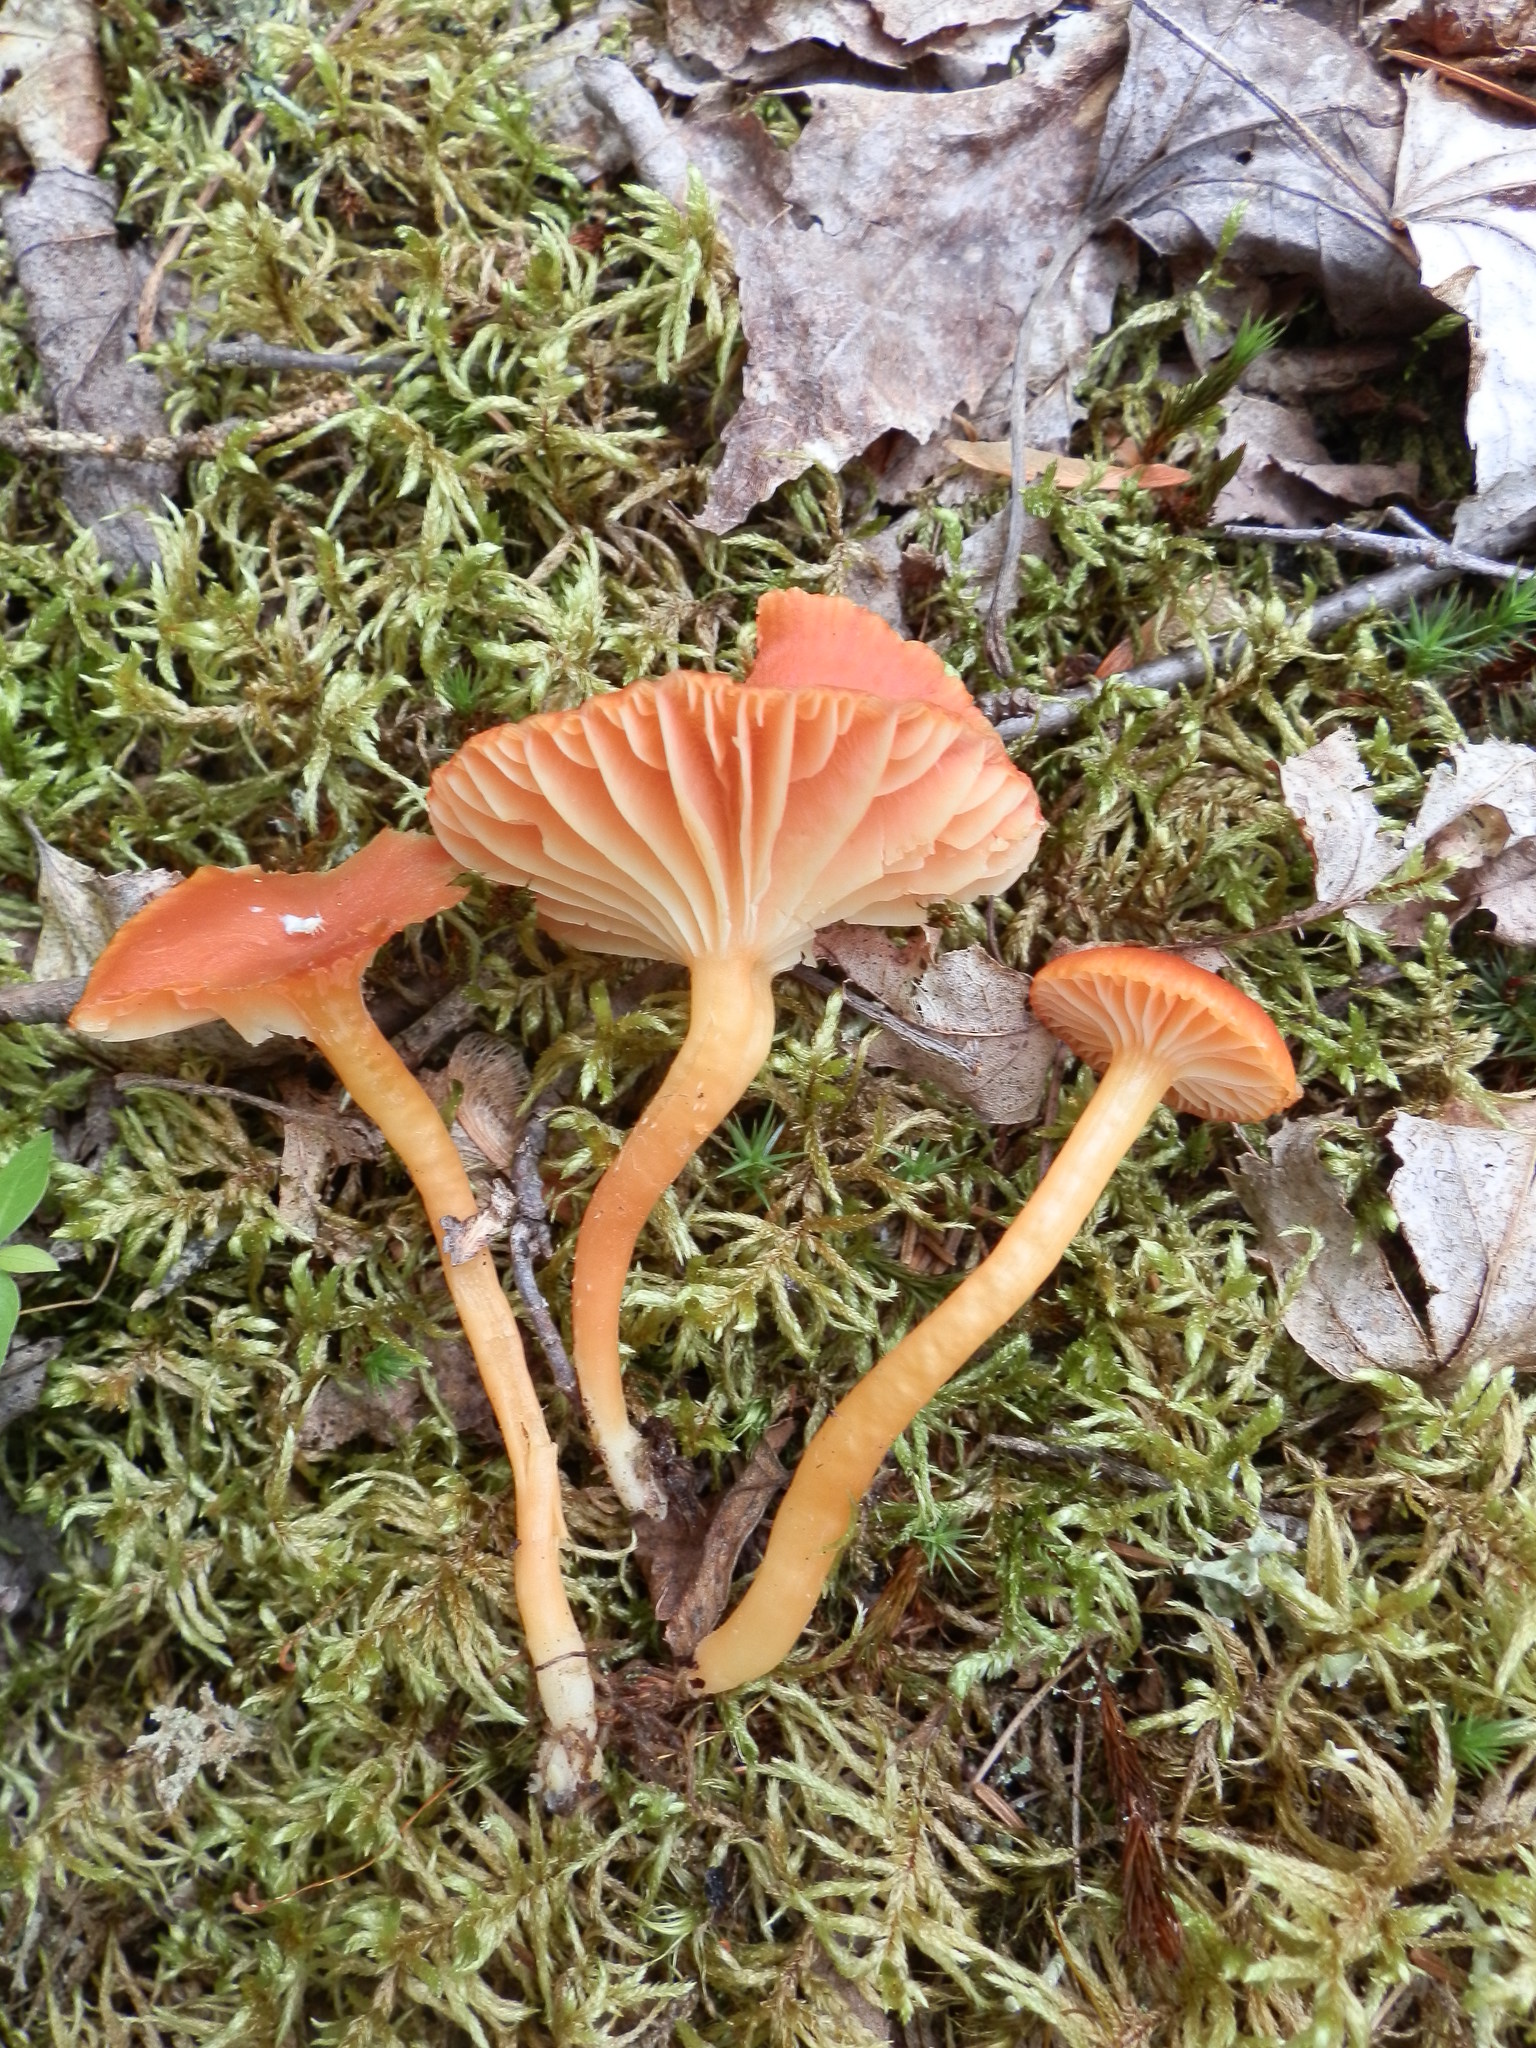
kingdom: Fungi
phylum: Basidiomycota
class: Agaricomycetes
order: Agaricales
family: Hygrophoraceae
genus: Hygrocybe
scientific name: Hygrocybe cantharellus
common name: Goblet waxcap
